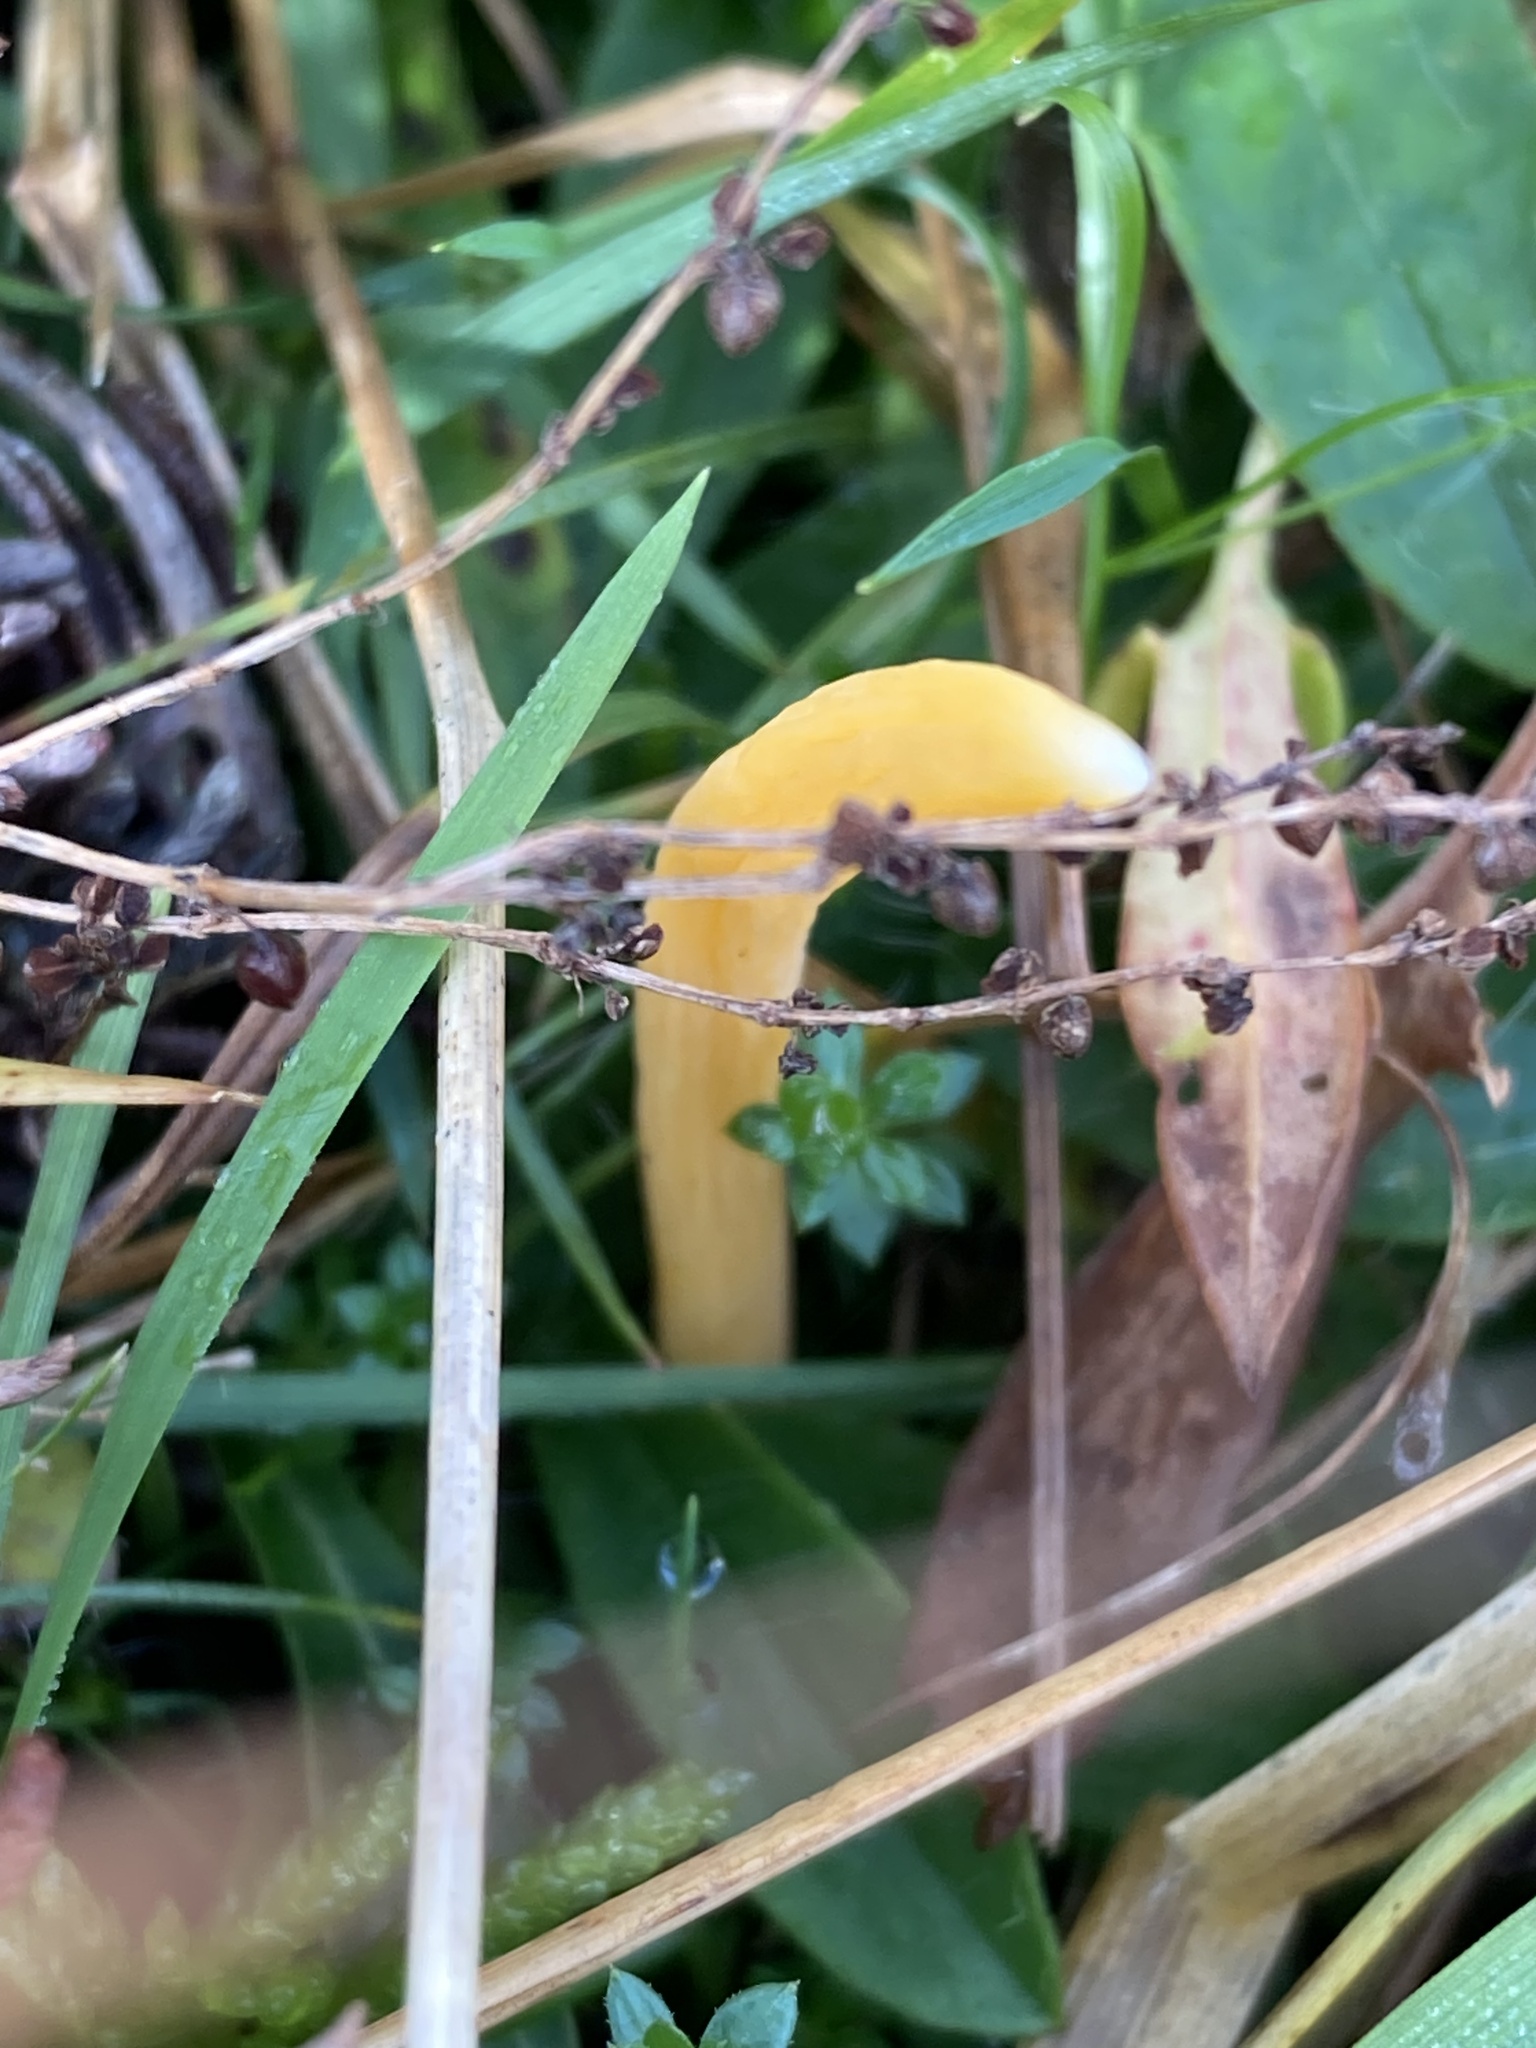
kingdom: Fungi
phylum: Basidiomycota
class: Agaricomycetes
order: Agaricales
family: Clavariaceae
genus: Clavulinopsis
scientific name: Clavulinopsis luteoalba
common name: Apricot club
